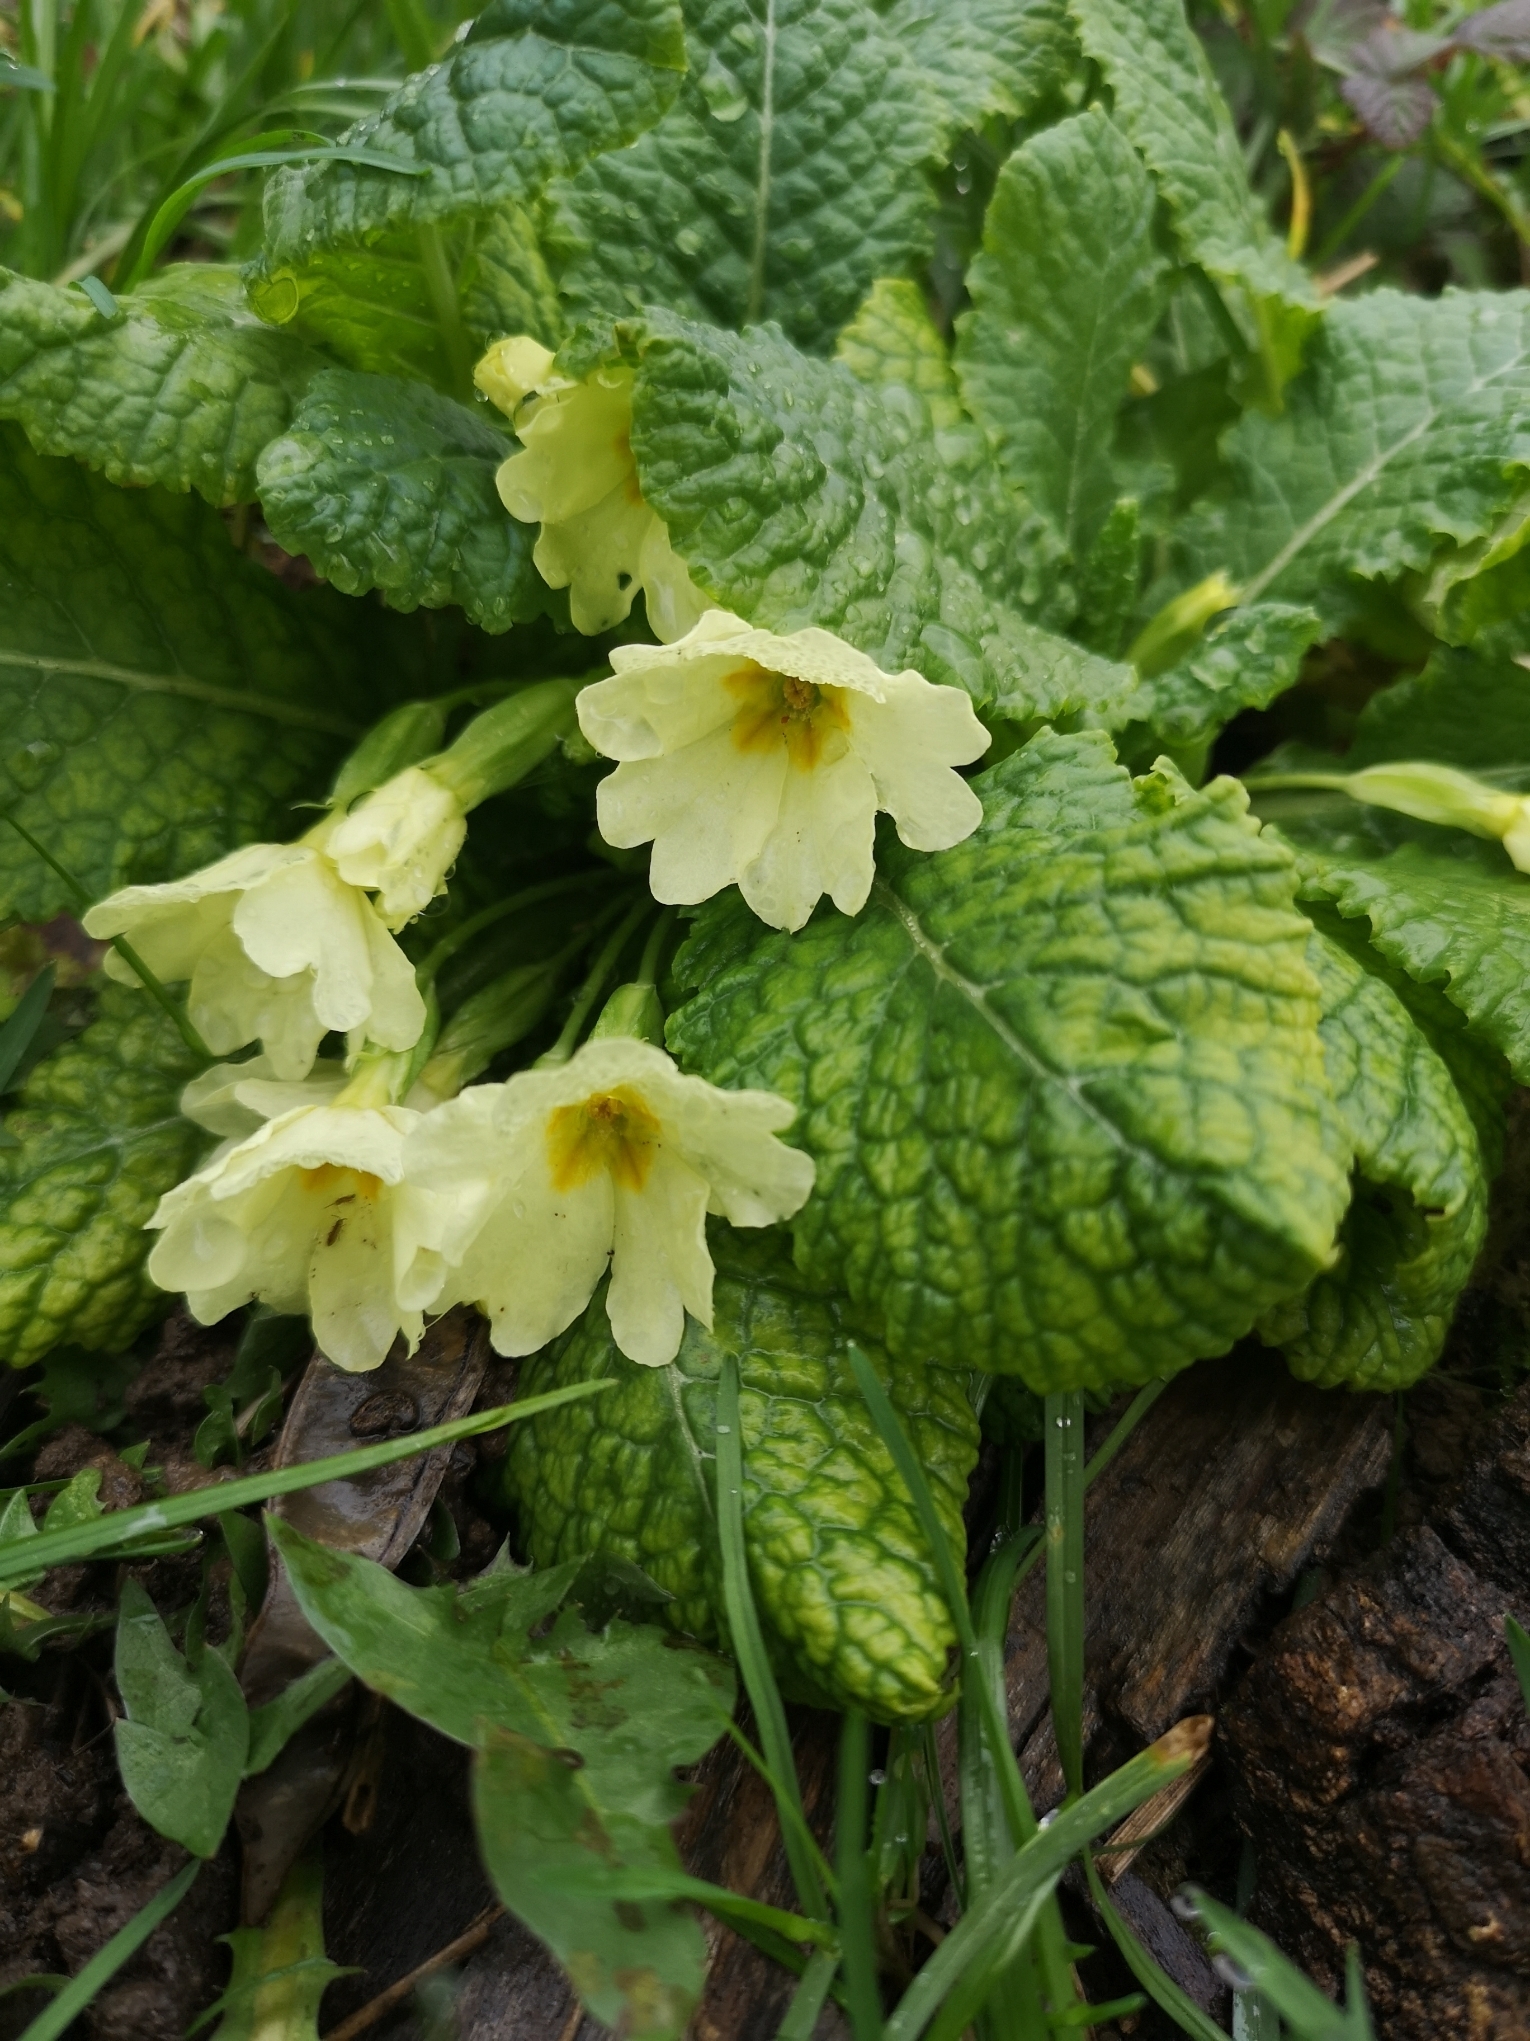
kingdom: Plantae
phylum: Tracheophyta
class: Magnoliopsida
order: Ericales
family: Primulaceae
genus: Primula
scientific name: Primula vulgaris
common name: Primrose
